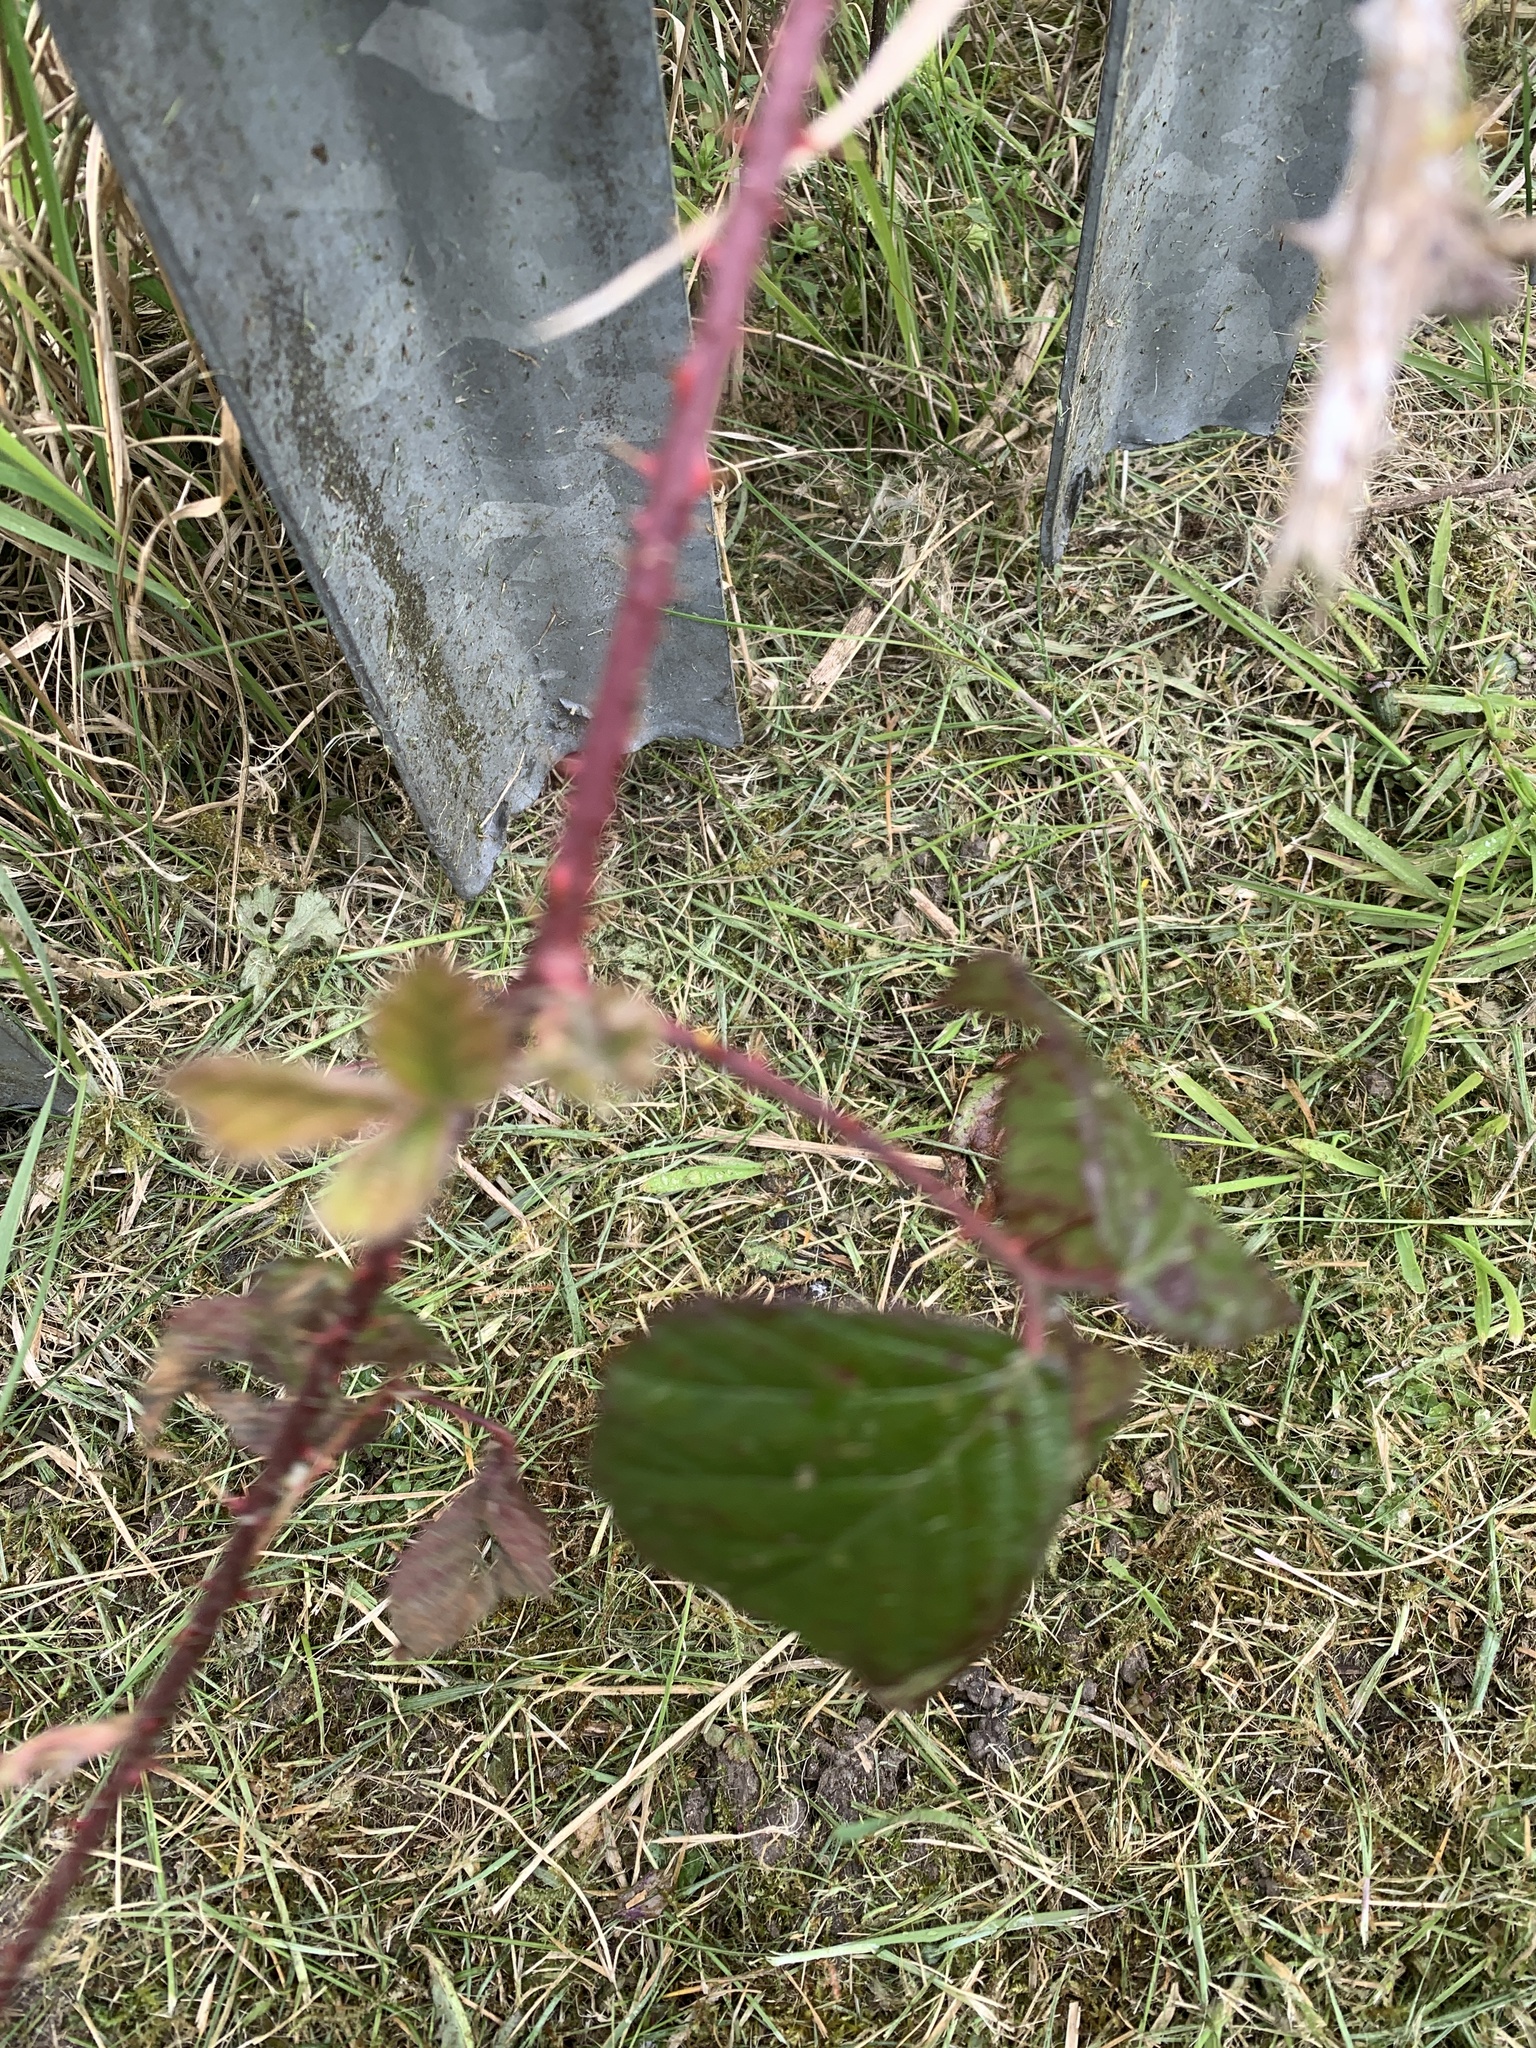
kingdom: Plantae
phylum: Tracheophyta
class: Magnoliopsida
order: Rosales
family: Rosaceae
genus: Rubus
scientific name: Rubus fruticosus
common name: Blackberry, bramble
